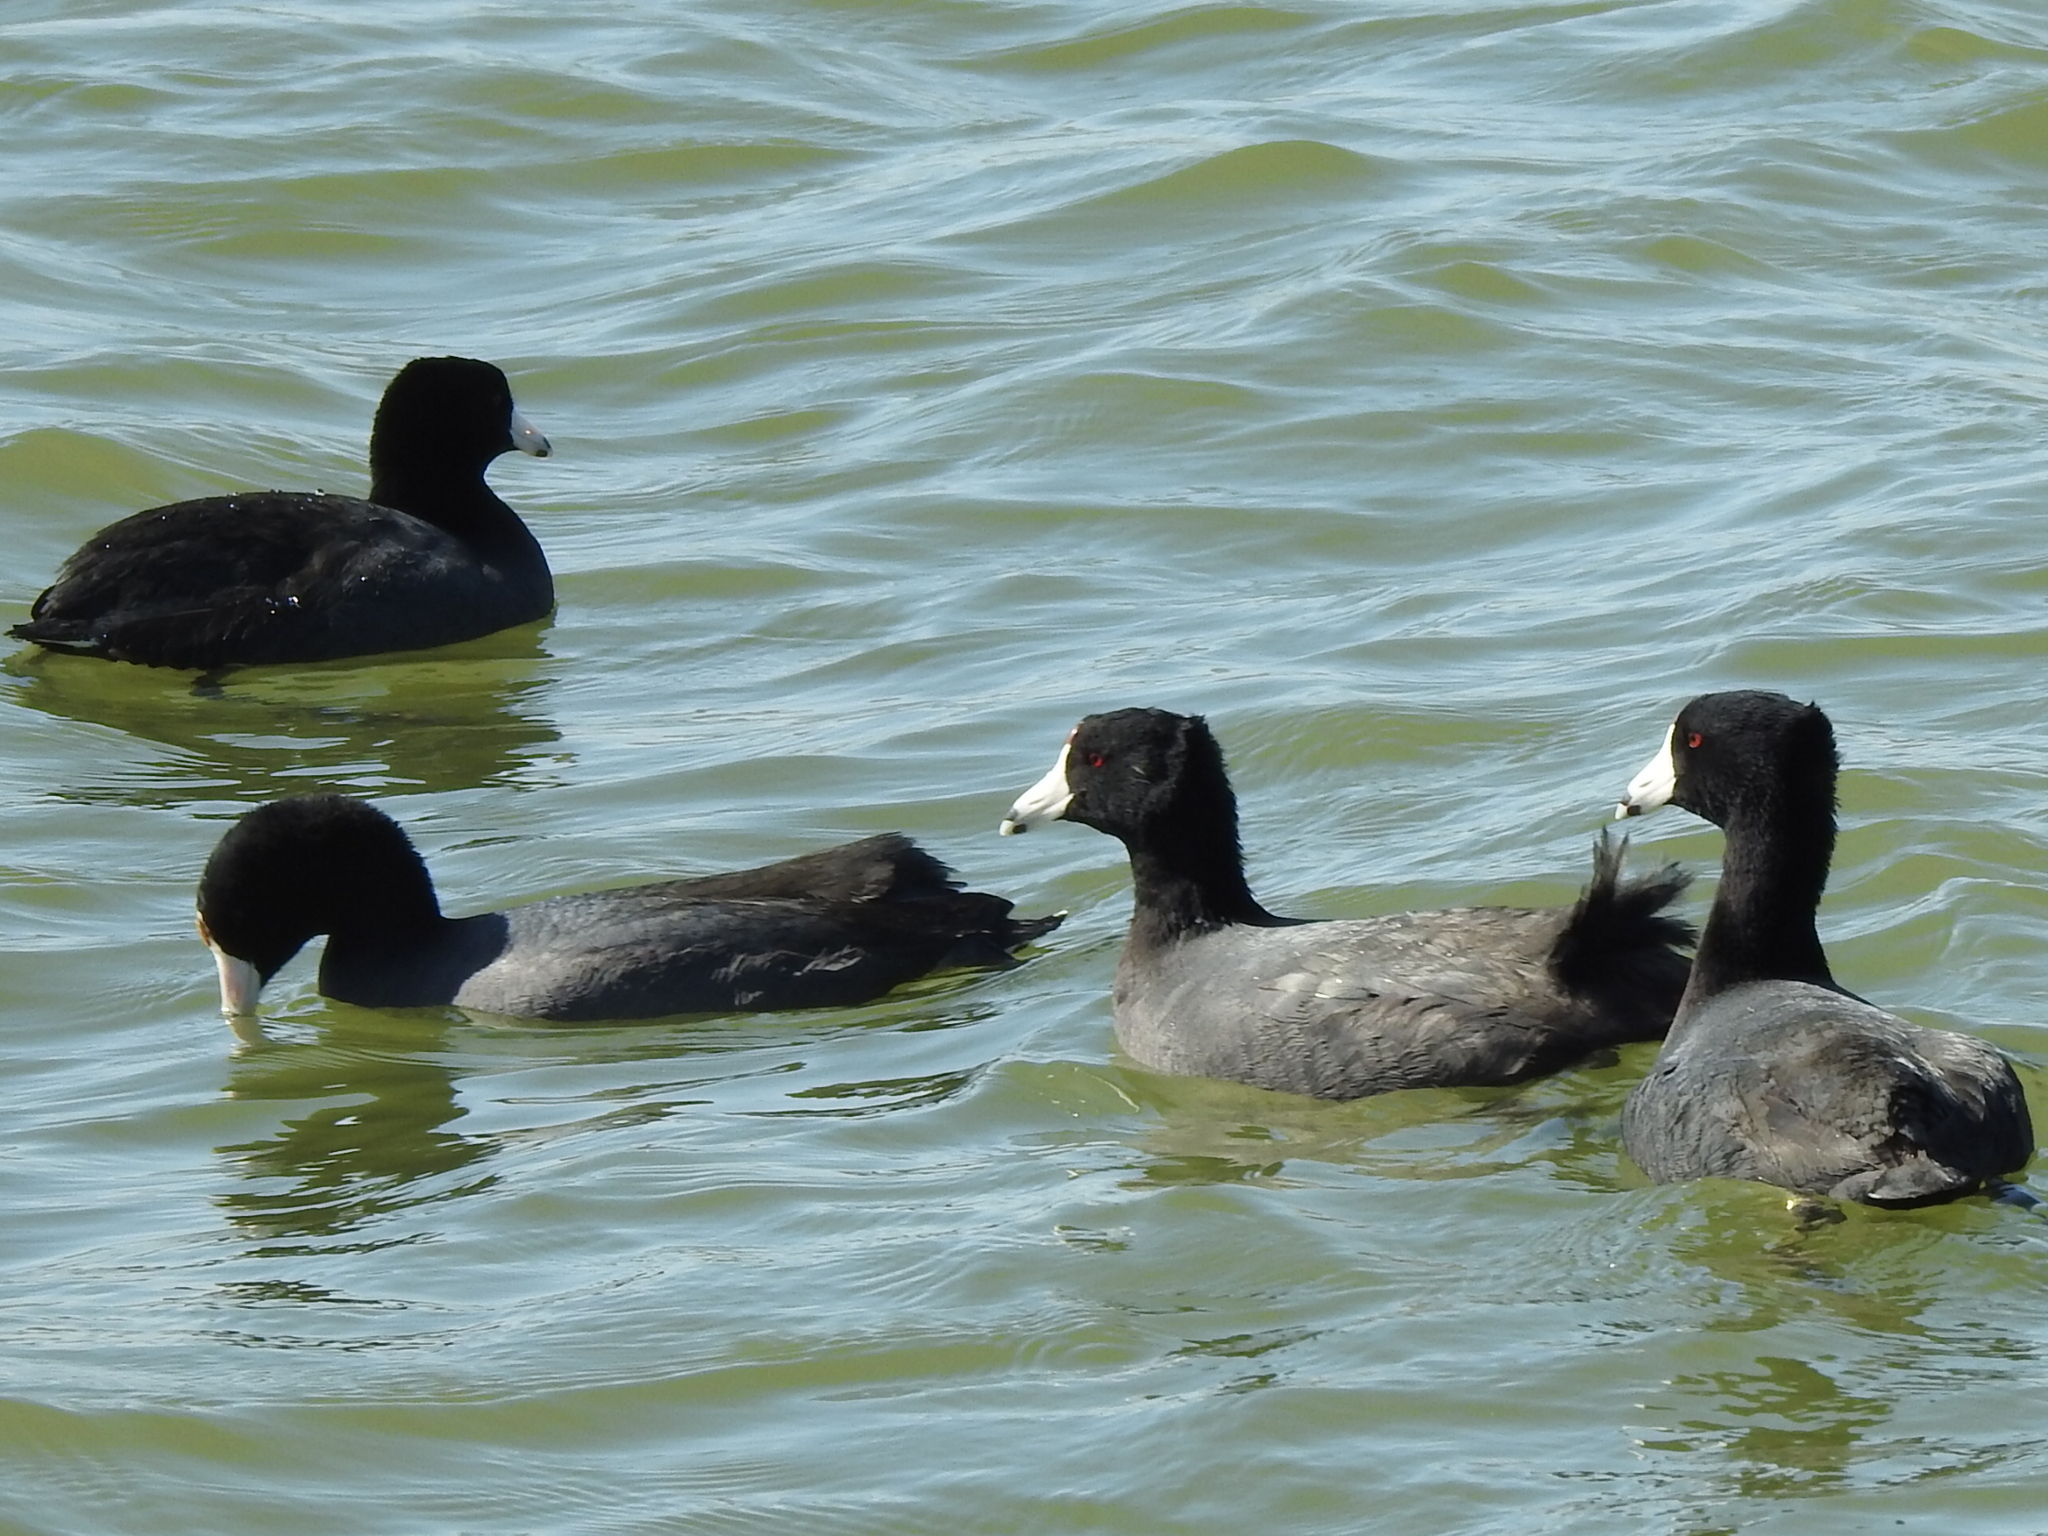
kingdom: Animalia
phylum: Chordata
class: Aves
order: Gruiformes
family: Rallidae
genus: Fulica
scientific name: Fulica americana
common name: American coot
